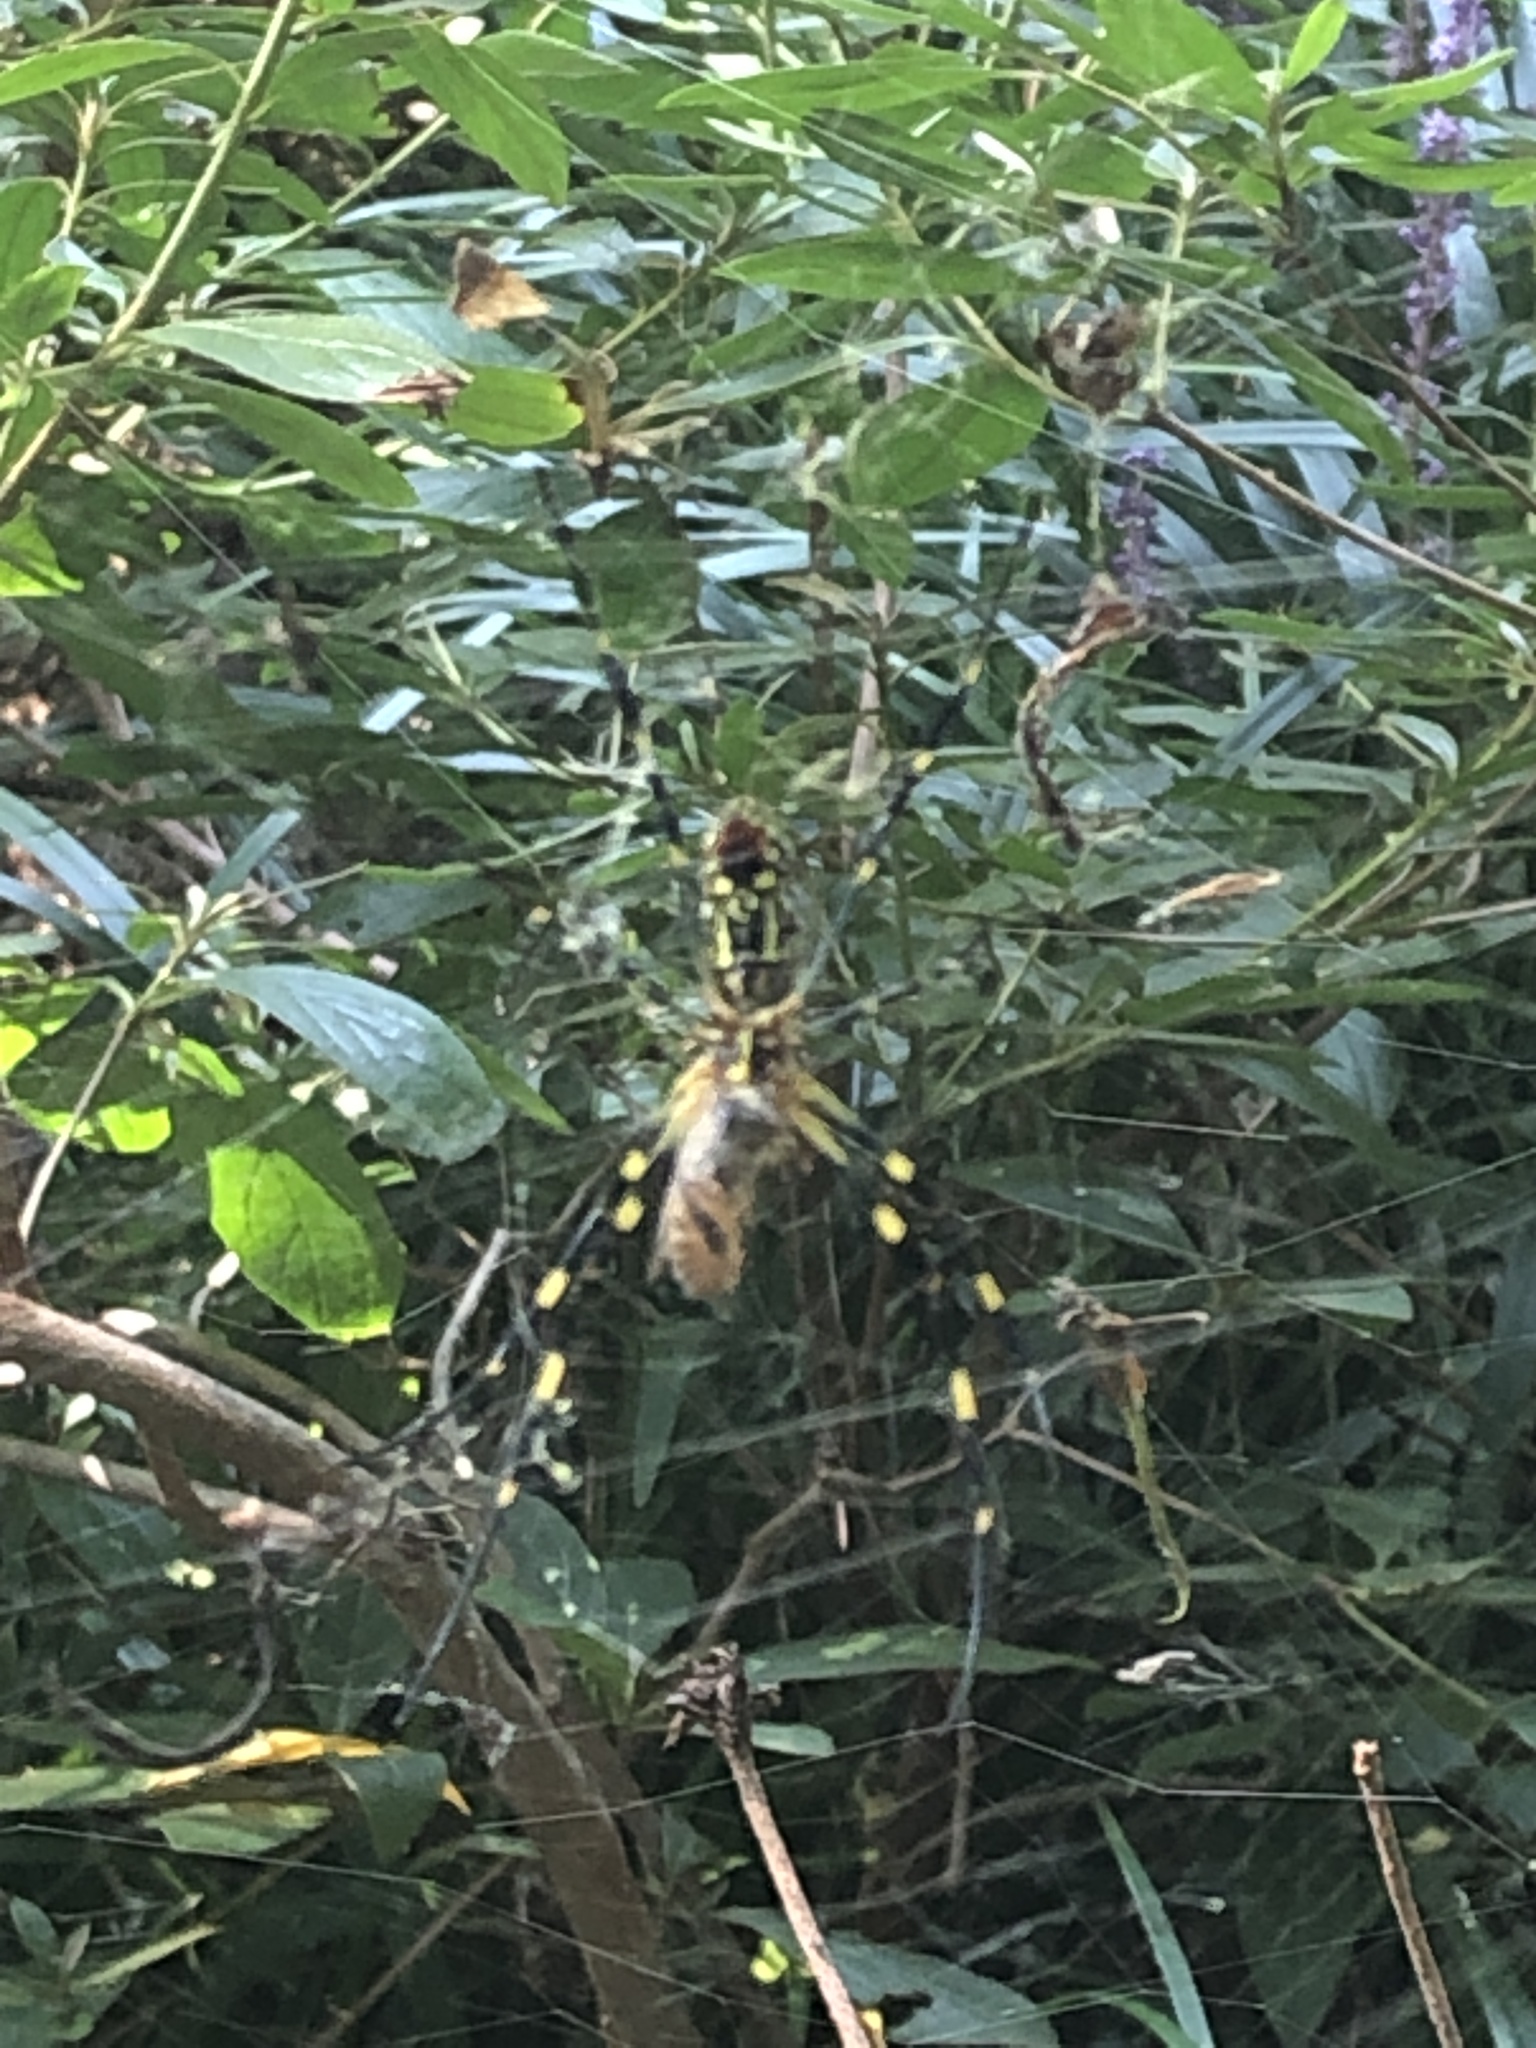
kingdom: Animalia
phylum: Arthropoda
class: Arachnida
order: Araneae
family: Araneidae
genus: Trichonephila
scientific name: Trichonephila clavata
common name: Jorō spider
